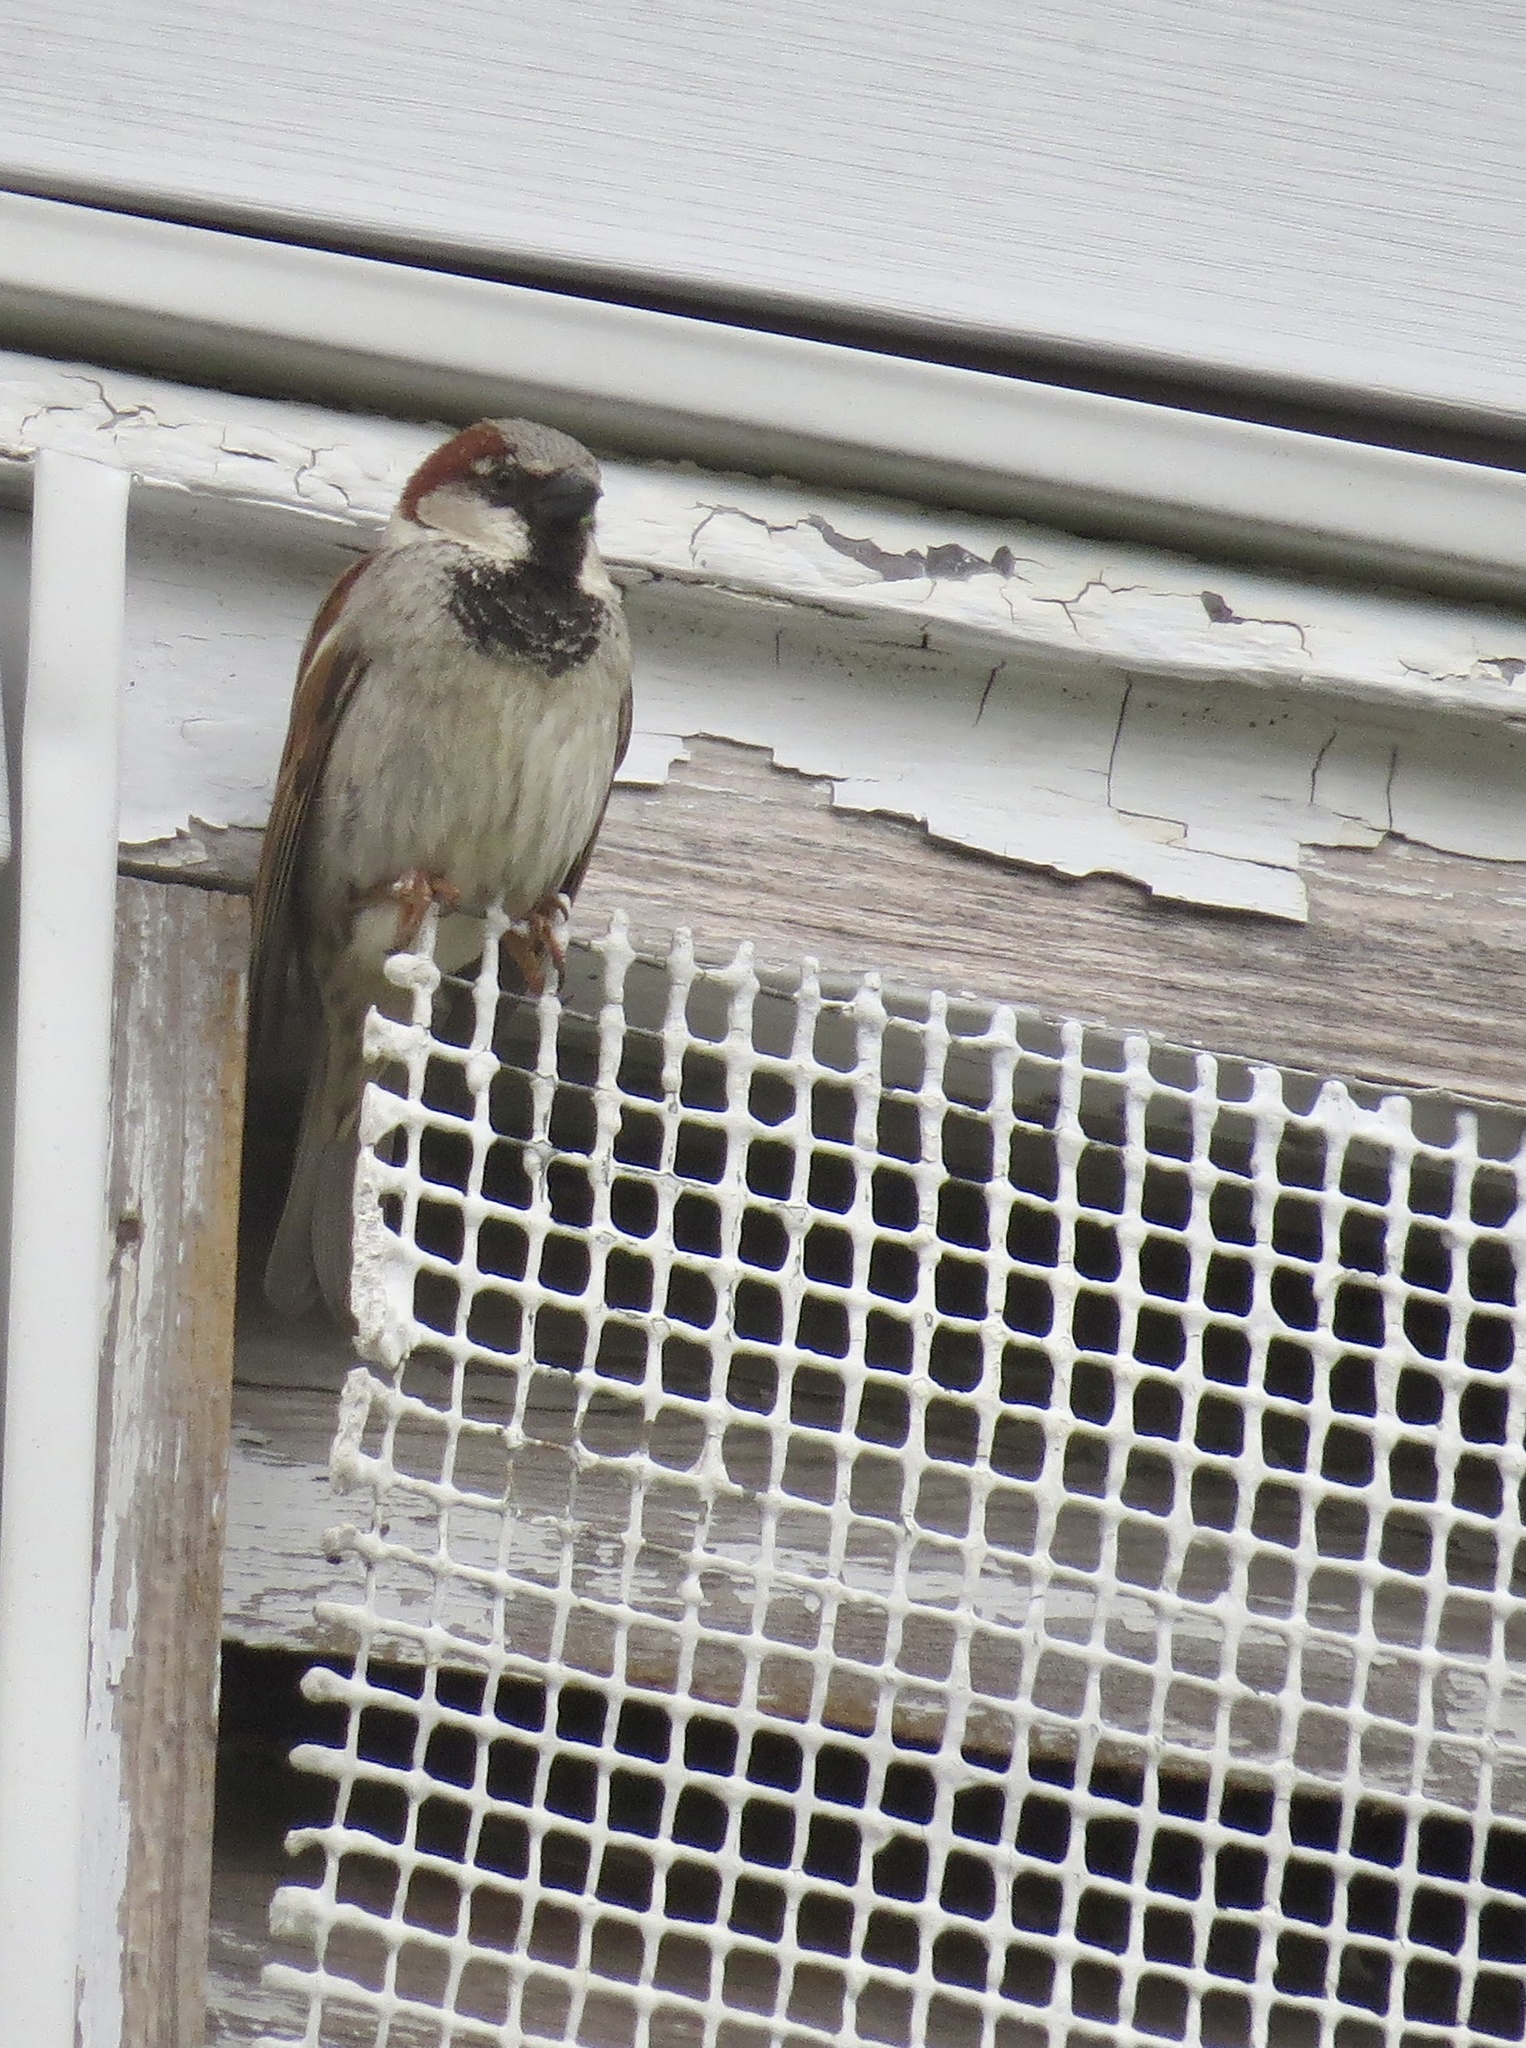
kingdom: Animalia
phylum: Chordata
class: Aves
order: Passeriformes
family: Passeridae
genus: Passer
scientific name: Passer domesticus
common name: House sparrow
